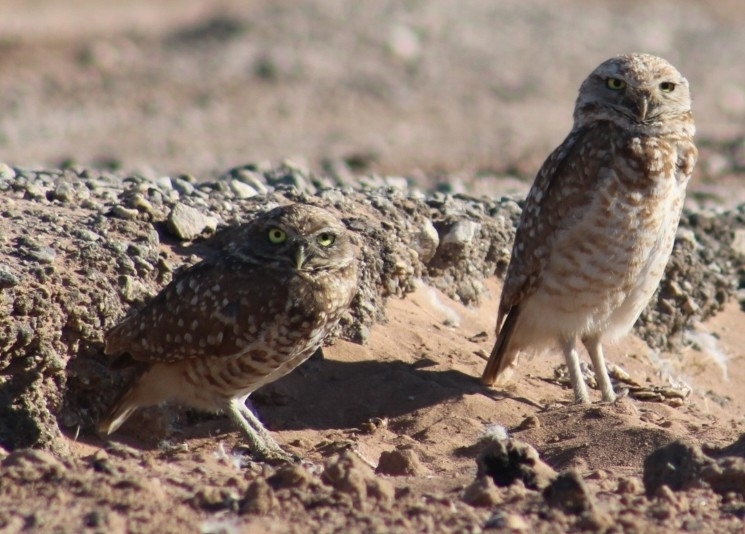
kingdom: Animalia
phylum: Chordata
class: Aves
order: Strigiformes
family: Strigidae
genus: Athene
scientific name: Athene cunicularia
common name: Burrowing owl
